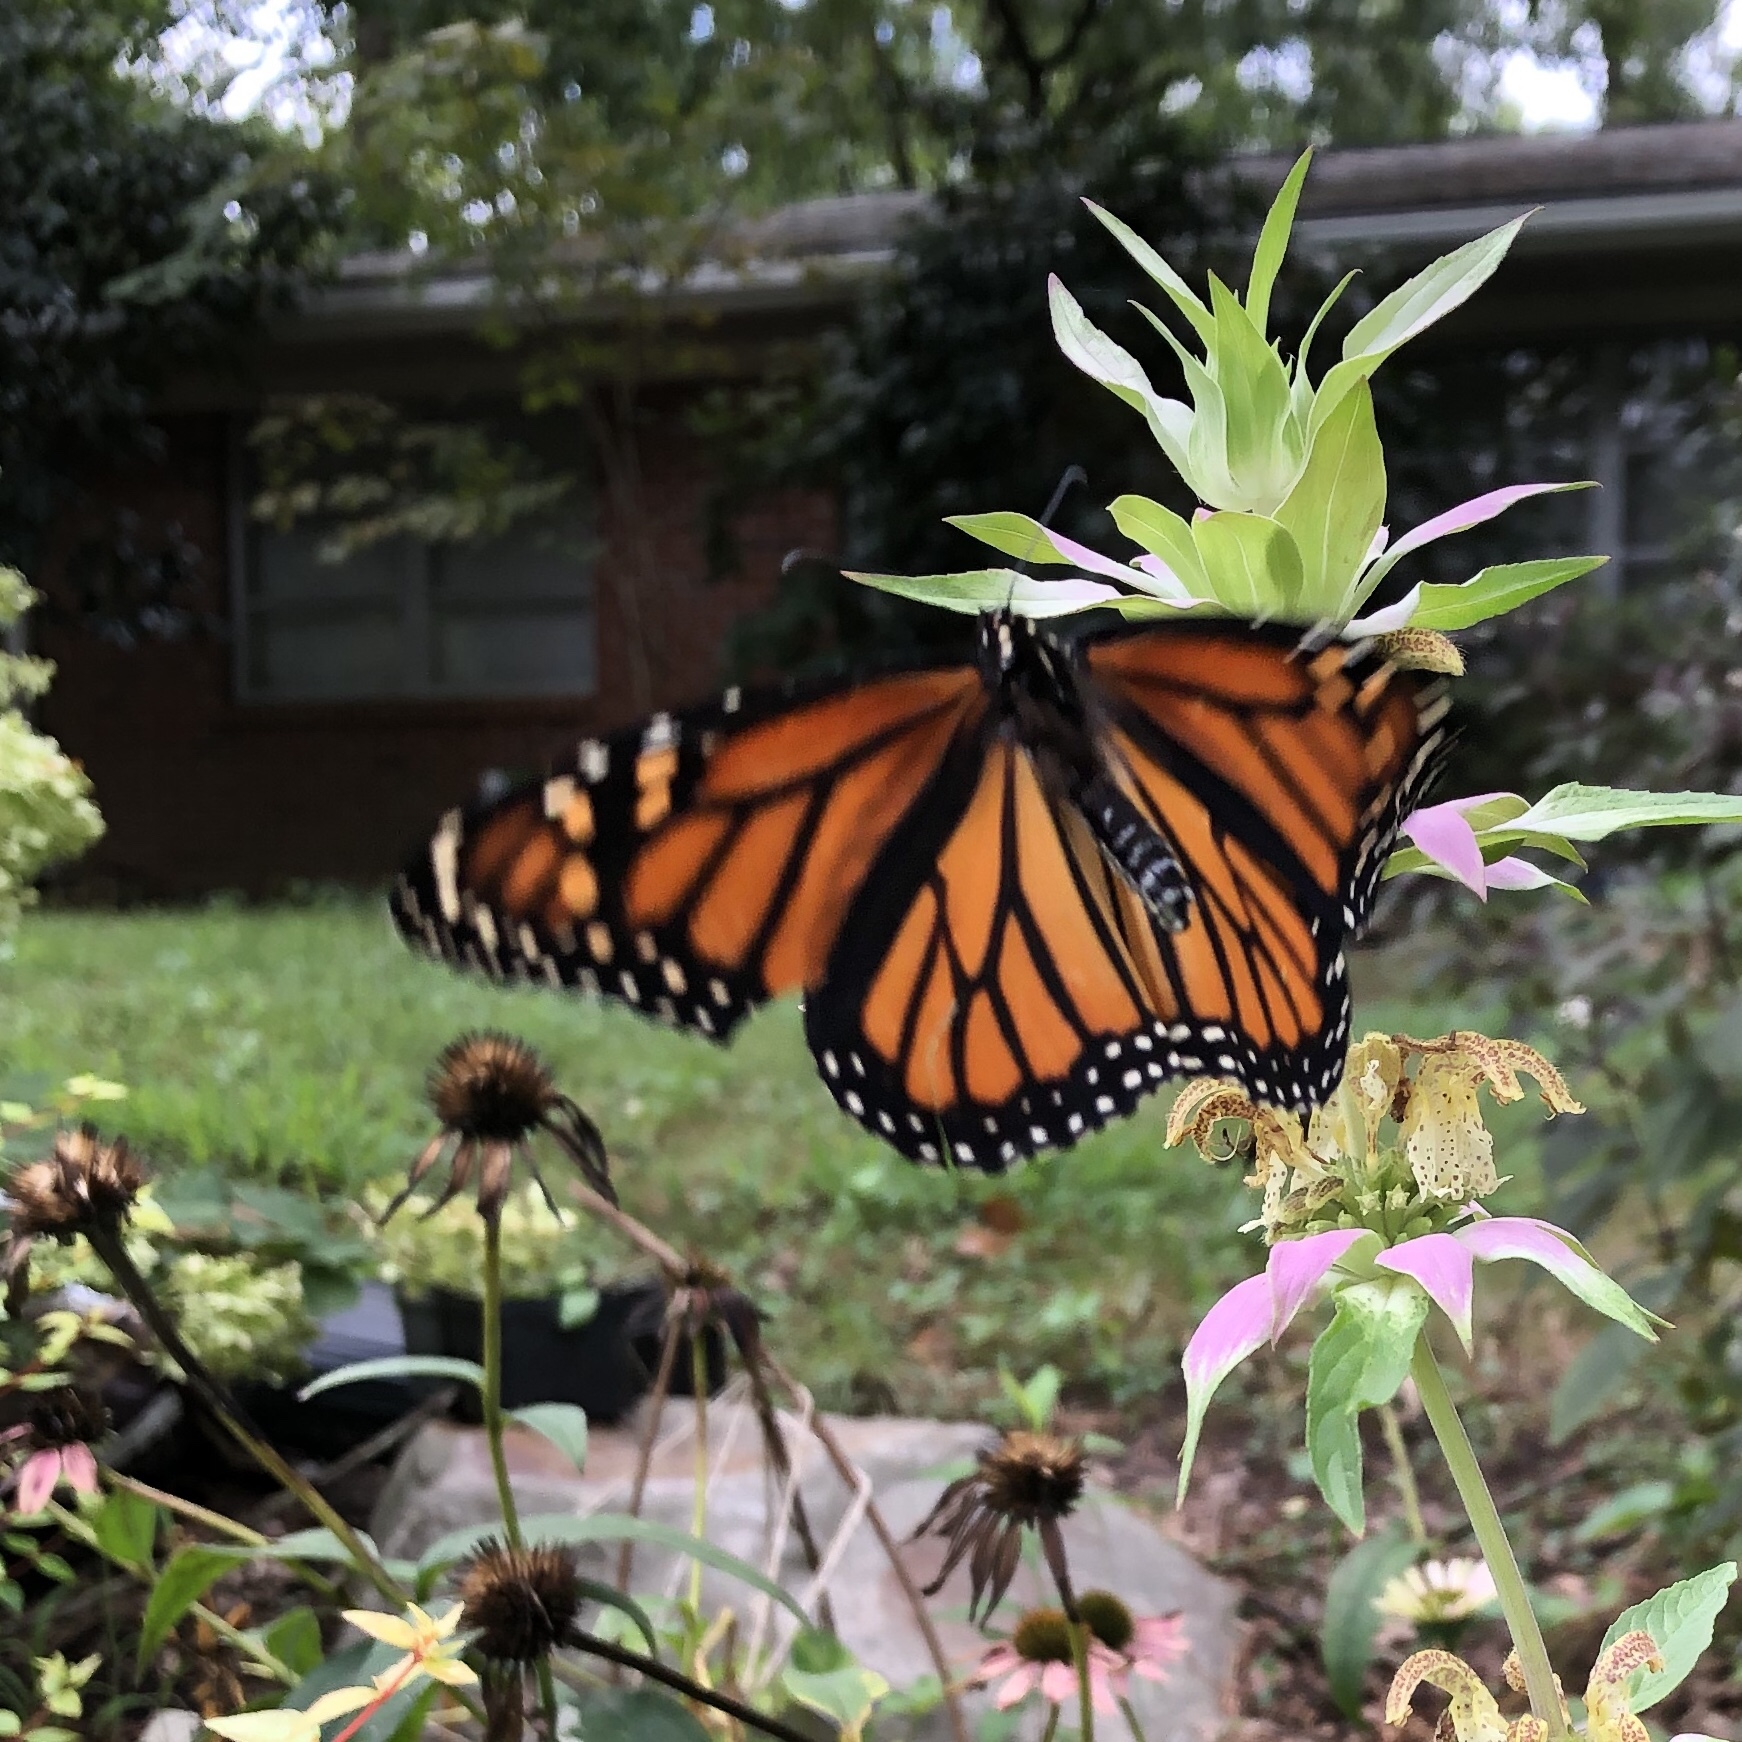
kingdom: Animalia
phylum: Arthropoda
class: Insecta
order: Lepidoptera
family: Nymphalidae
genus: Danaus
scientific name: Danaus plexippus
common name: Monarch
